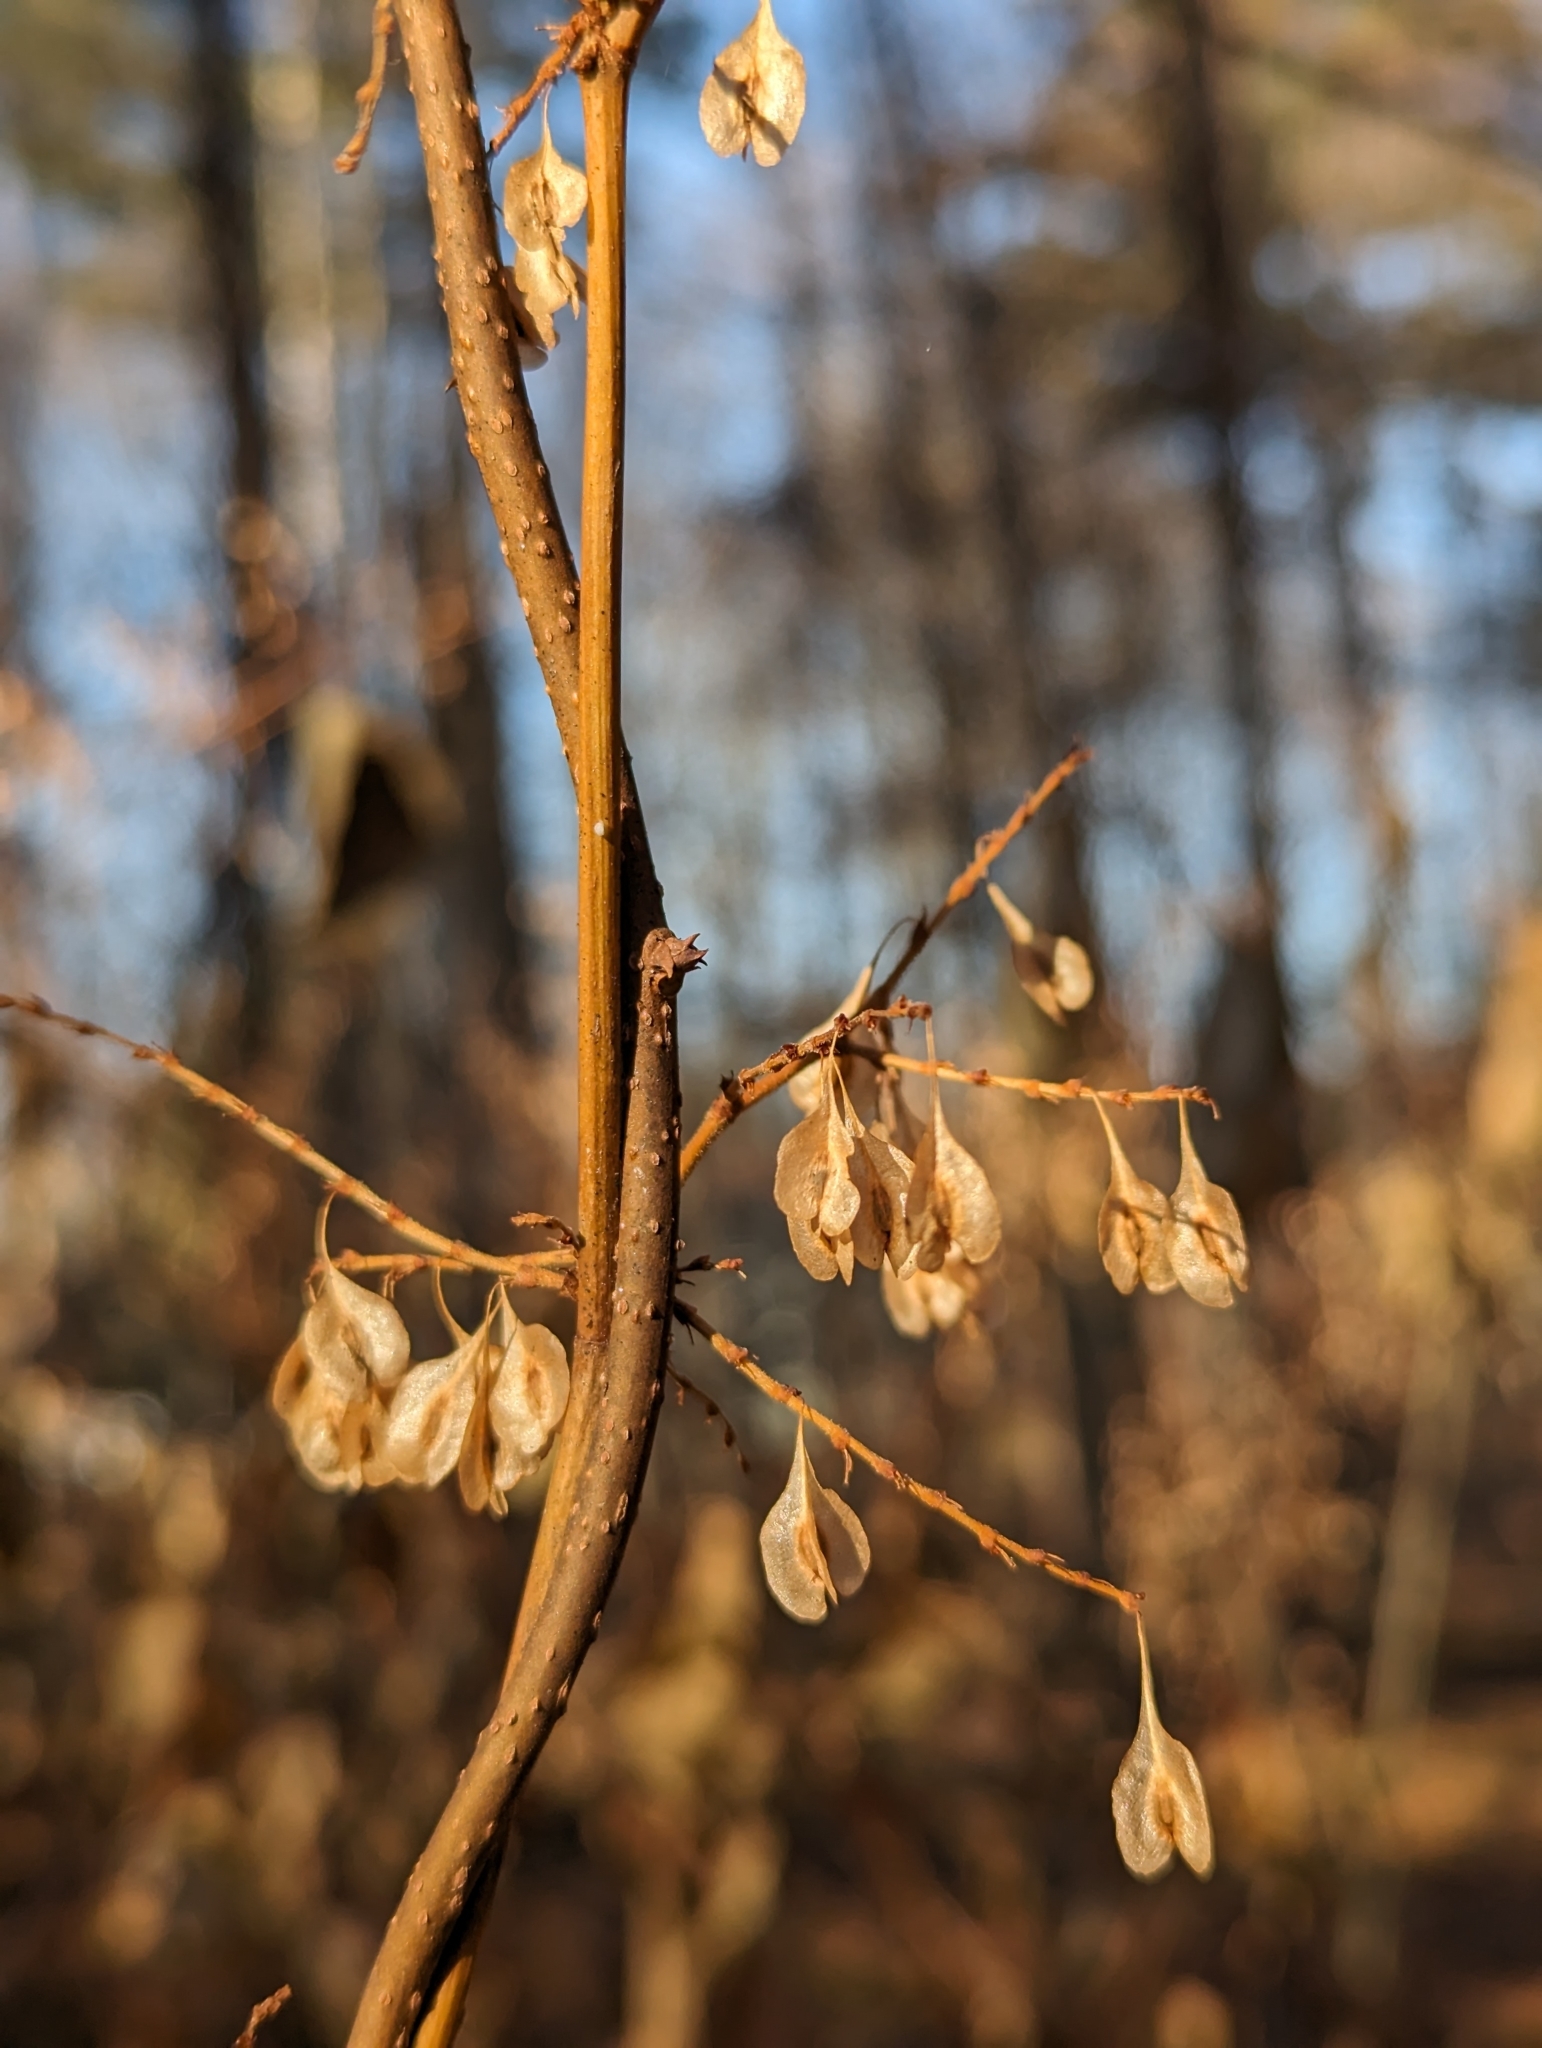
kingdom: Plantae
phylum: Tracheophyta
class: Magnoliopsida
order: Caryophyllales
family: Polygonaceae
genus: Reynoutria
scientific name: Reynoutria japonica
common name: Japanese knotweed
